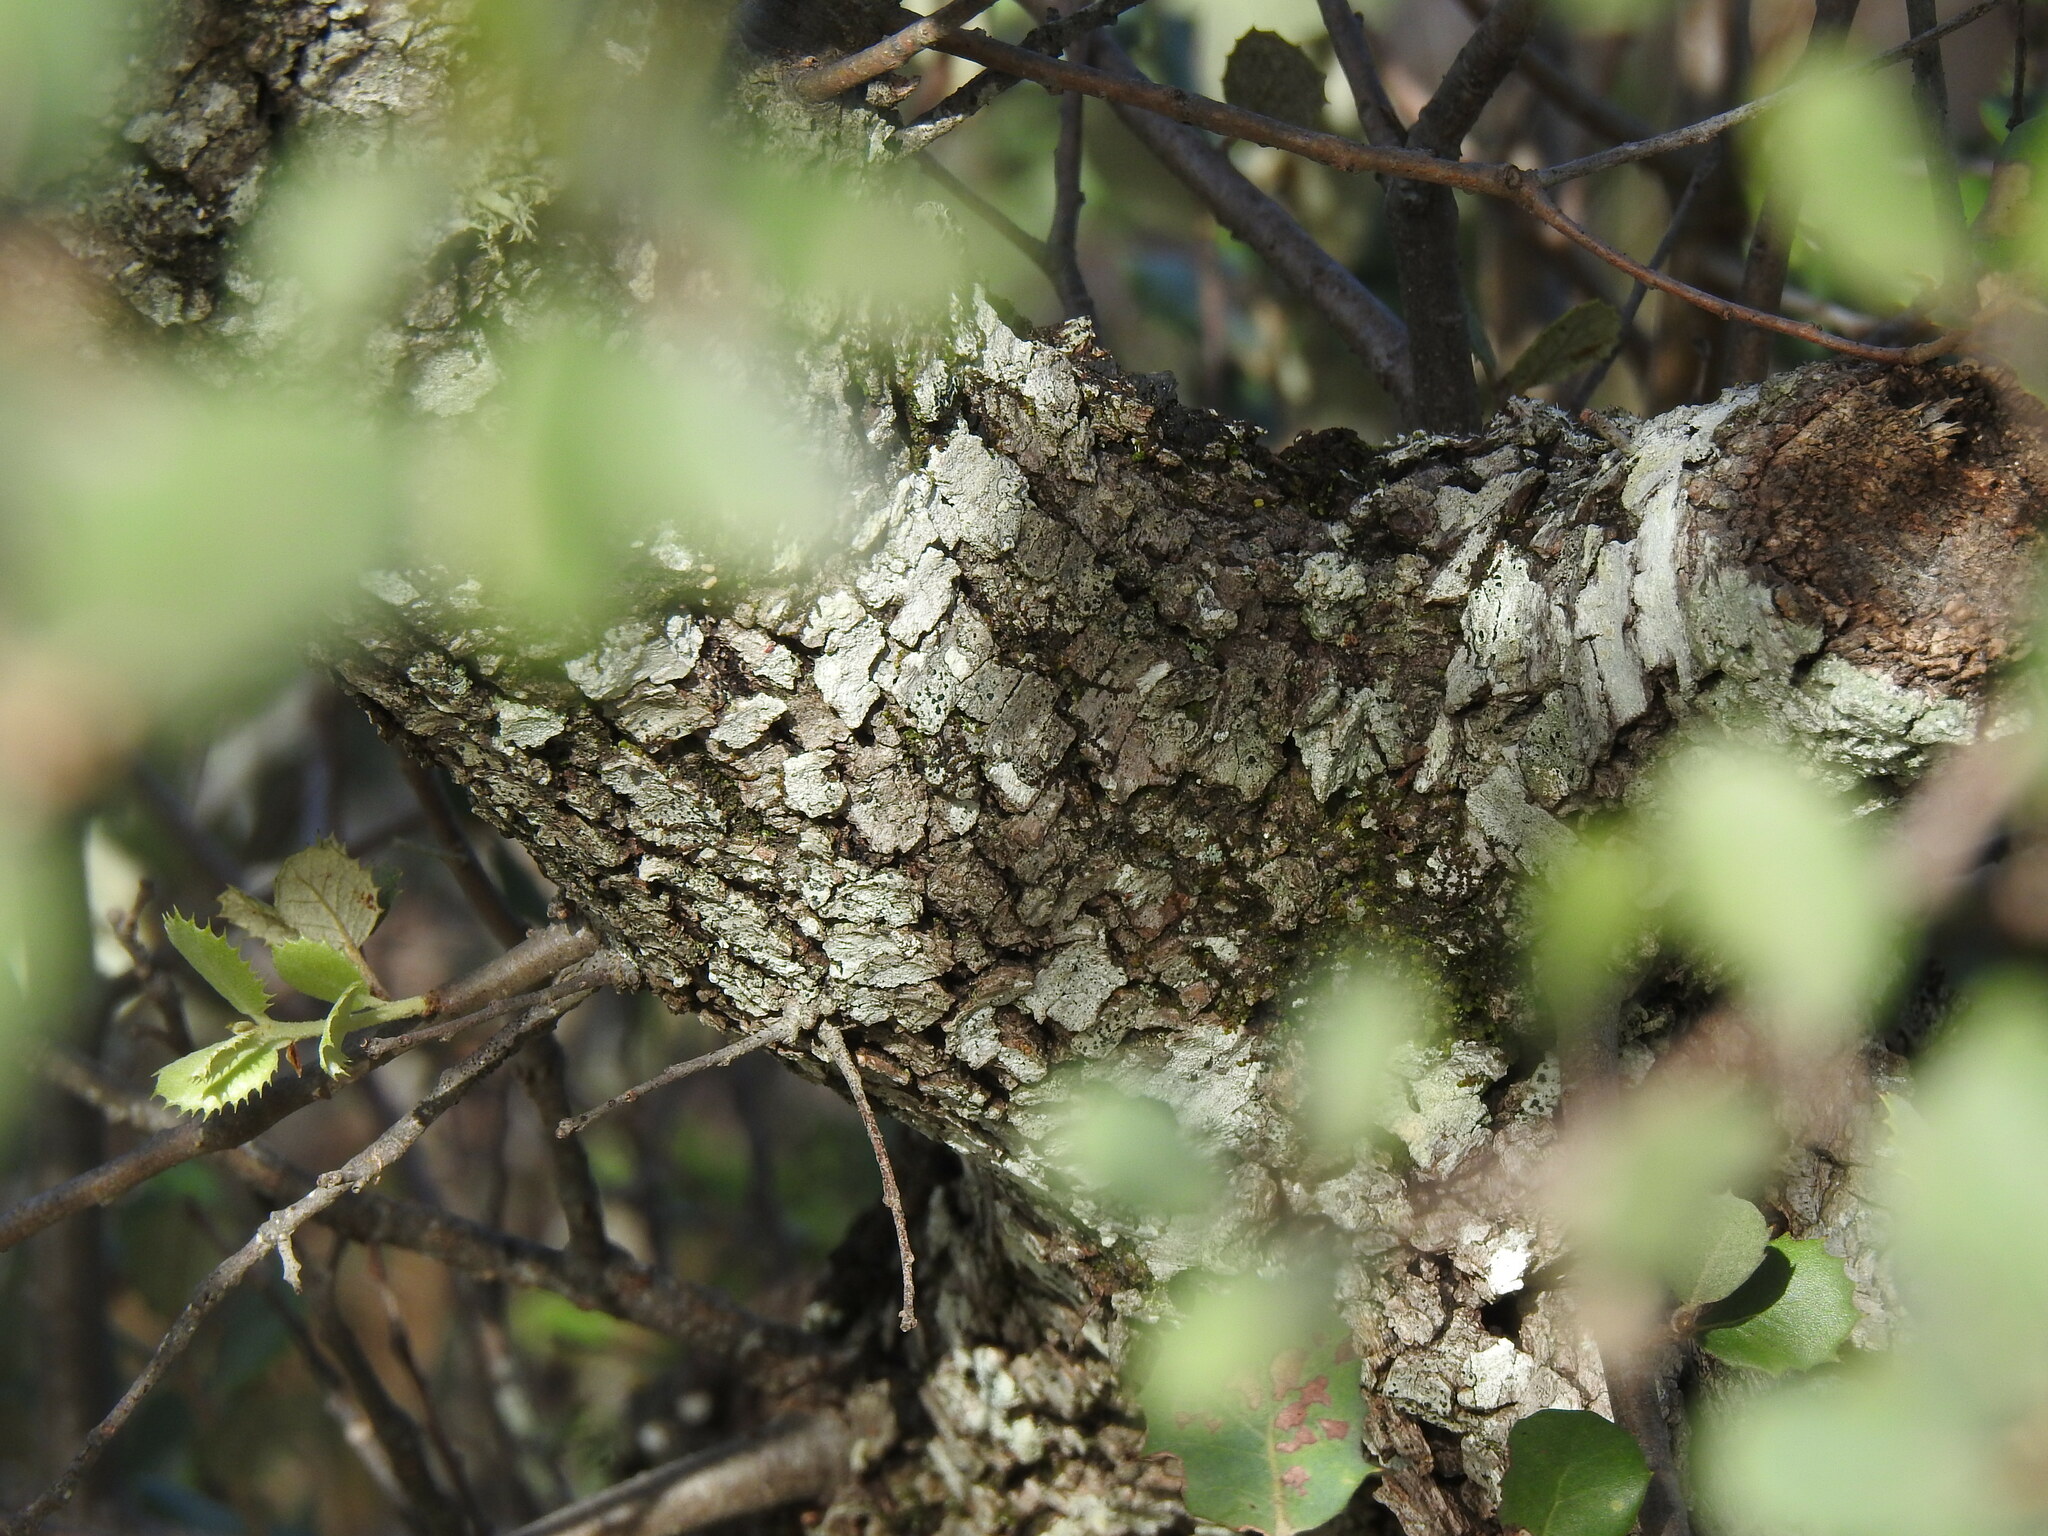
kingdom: Plantae
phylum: Tracheophyta
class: Magnoliopsida
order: Fagales
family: Fagaceae
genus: Quercus
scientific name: Quercus rotundifolia
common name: Holm oak
